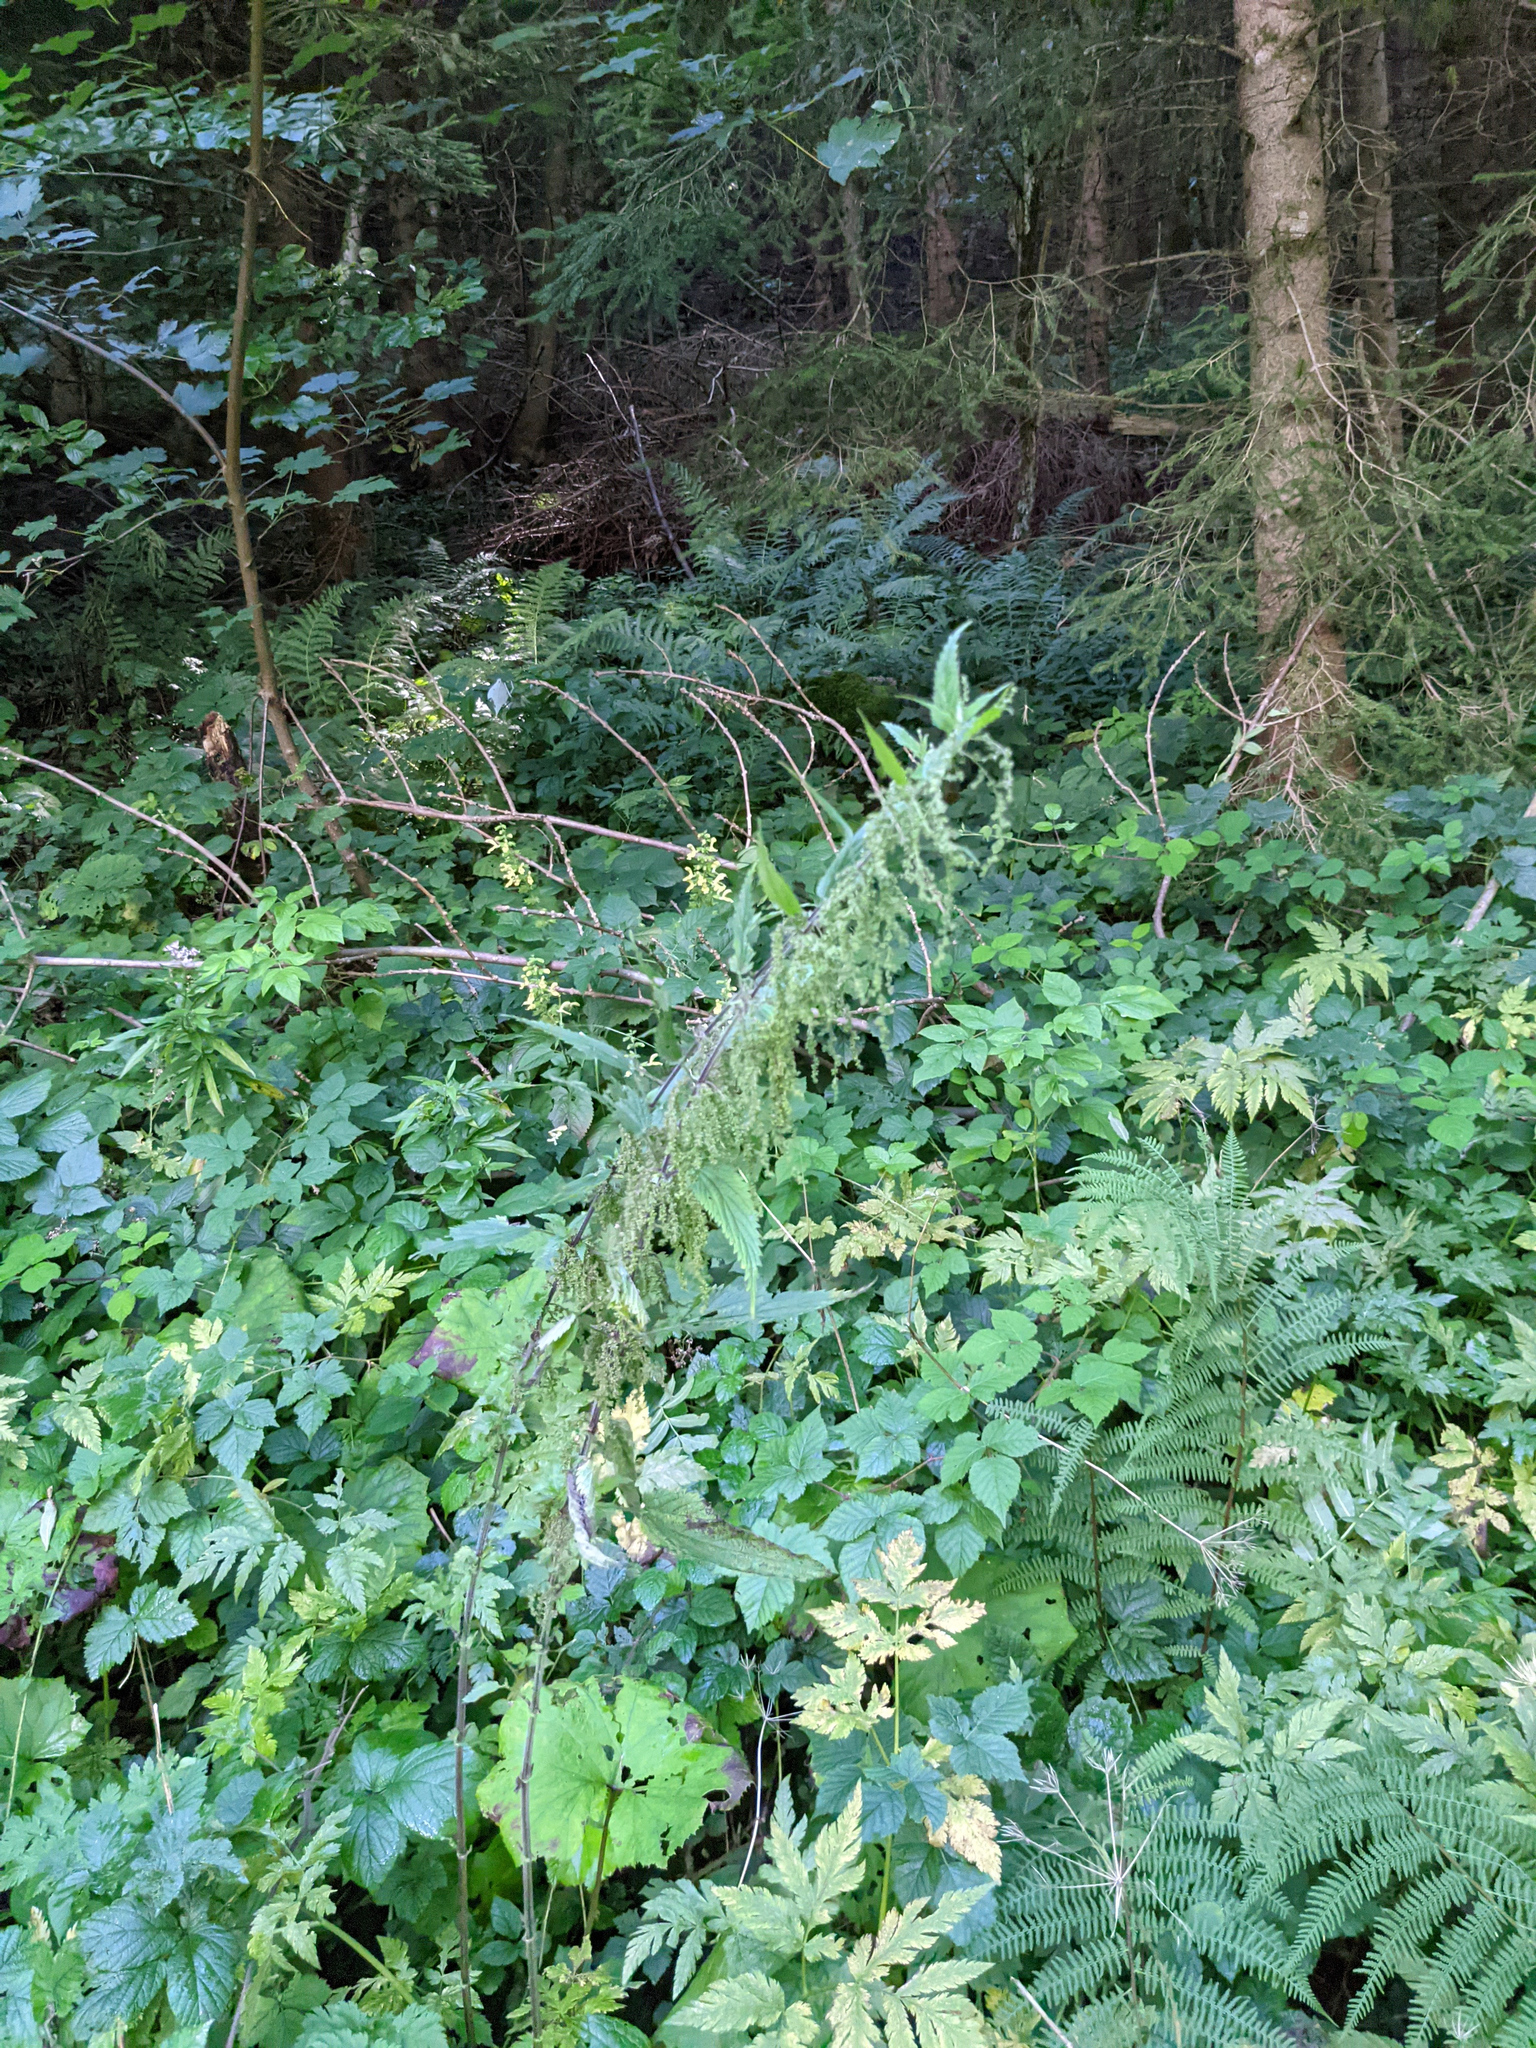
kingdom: Plantae
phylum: Tracheophyta
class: Magnoliopsida
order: Rosales
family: Urticaceae
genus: Urtica
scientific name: Urtica dioica
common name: Common nettle
